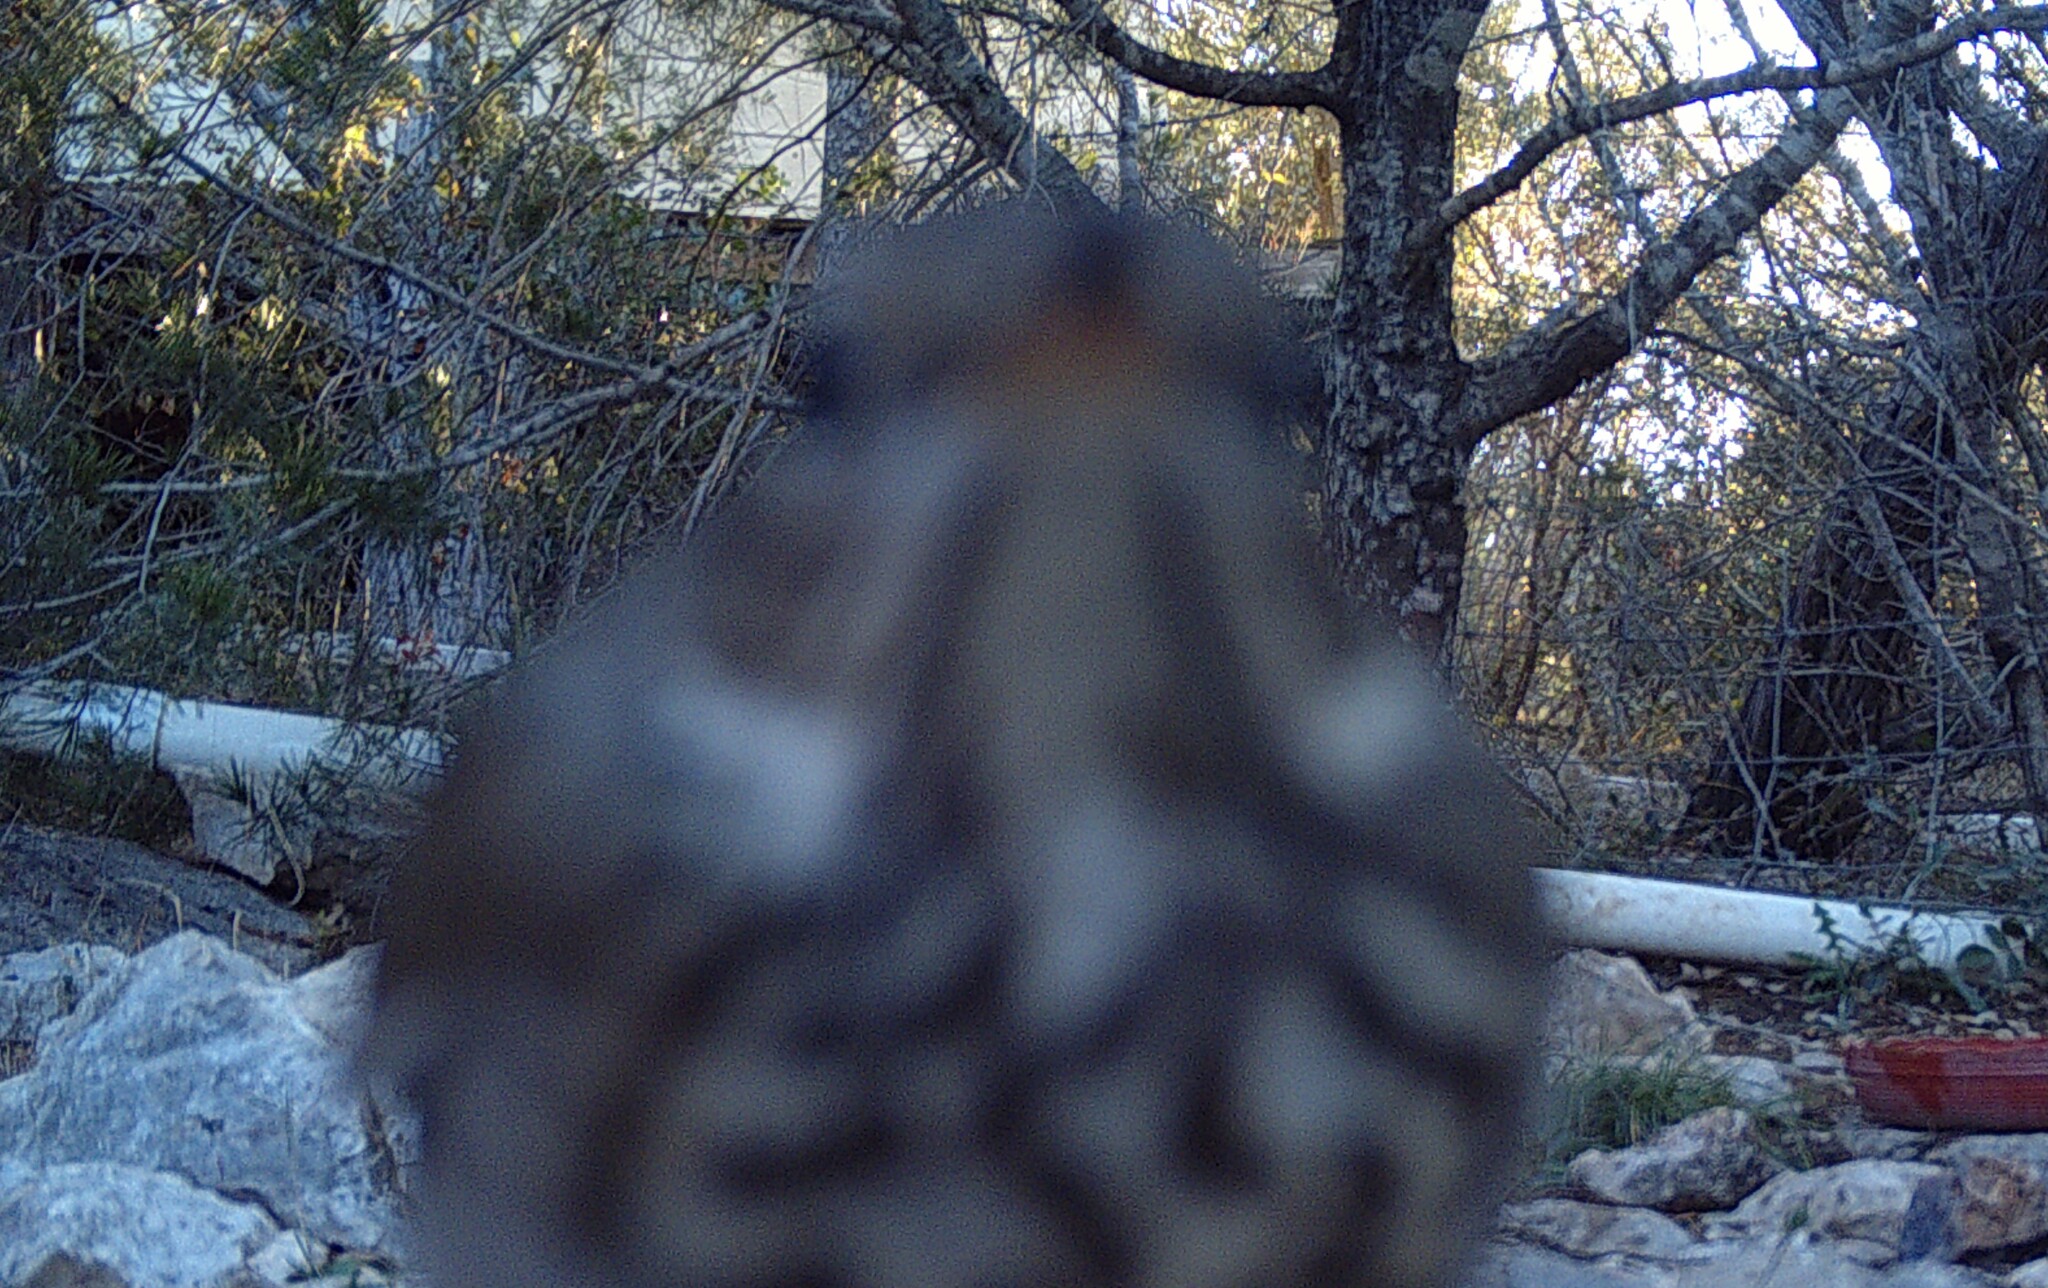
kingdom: Animalia
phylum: Chordata
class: Aves
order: Passeriformes
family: Turdidae
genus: Catharus
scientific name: Catharus guttatus
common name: Hermit thrush
